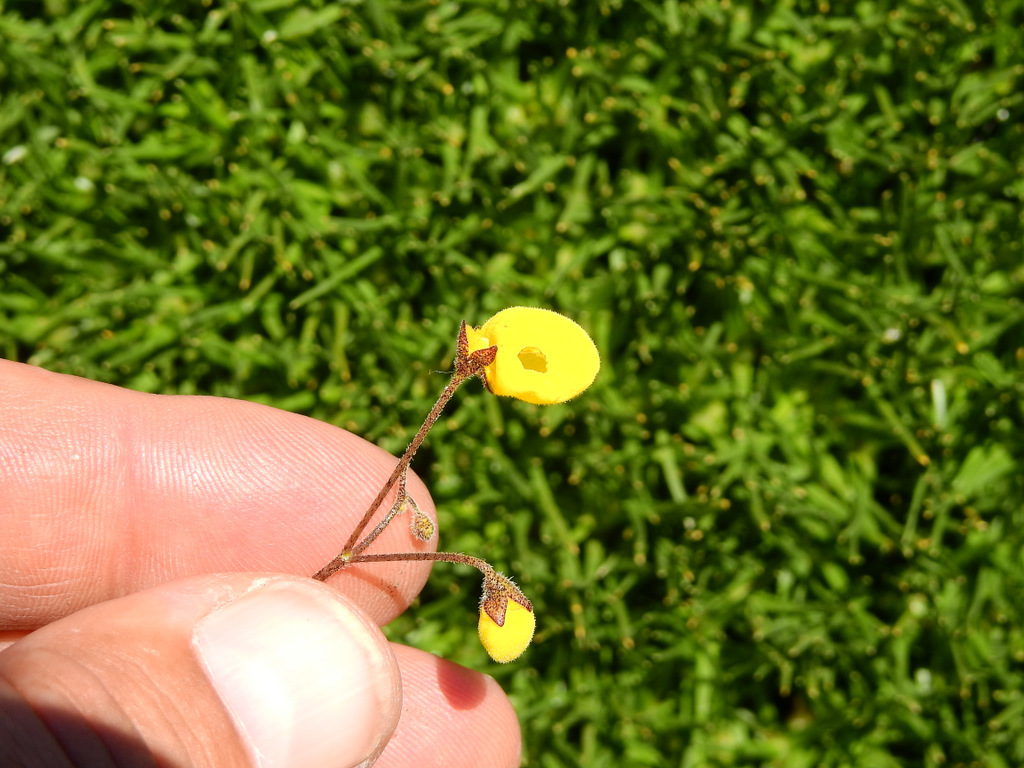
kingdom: Plantae
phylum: Tracheophyta
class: Magnoliopsida
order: Lamiales
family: Calceolariaceae
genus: Calceolaria
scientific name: Calceolaria filicaulis
